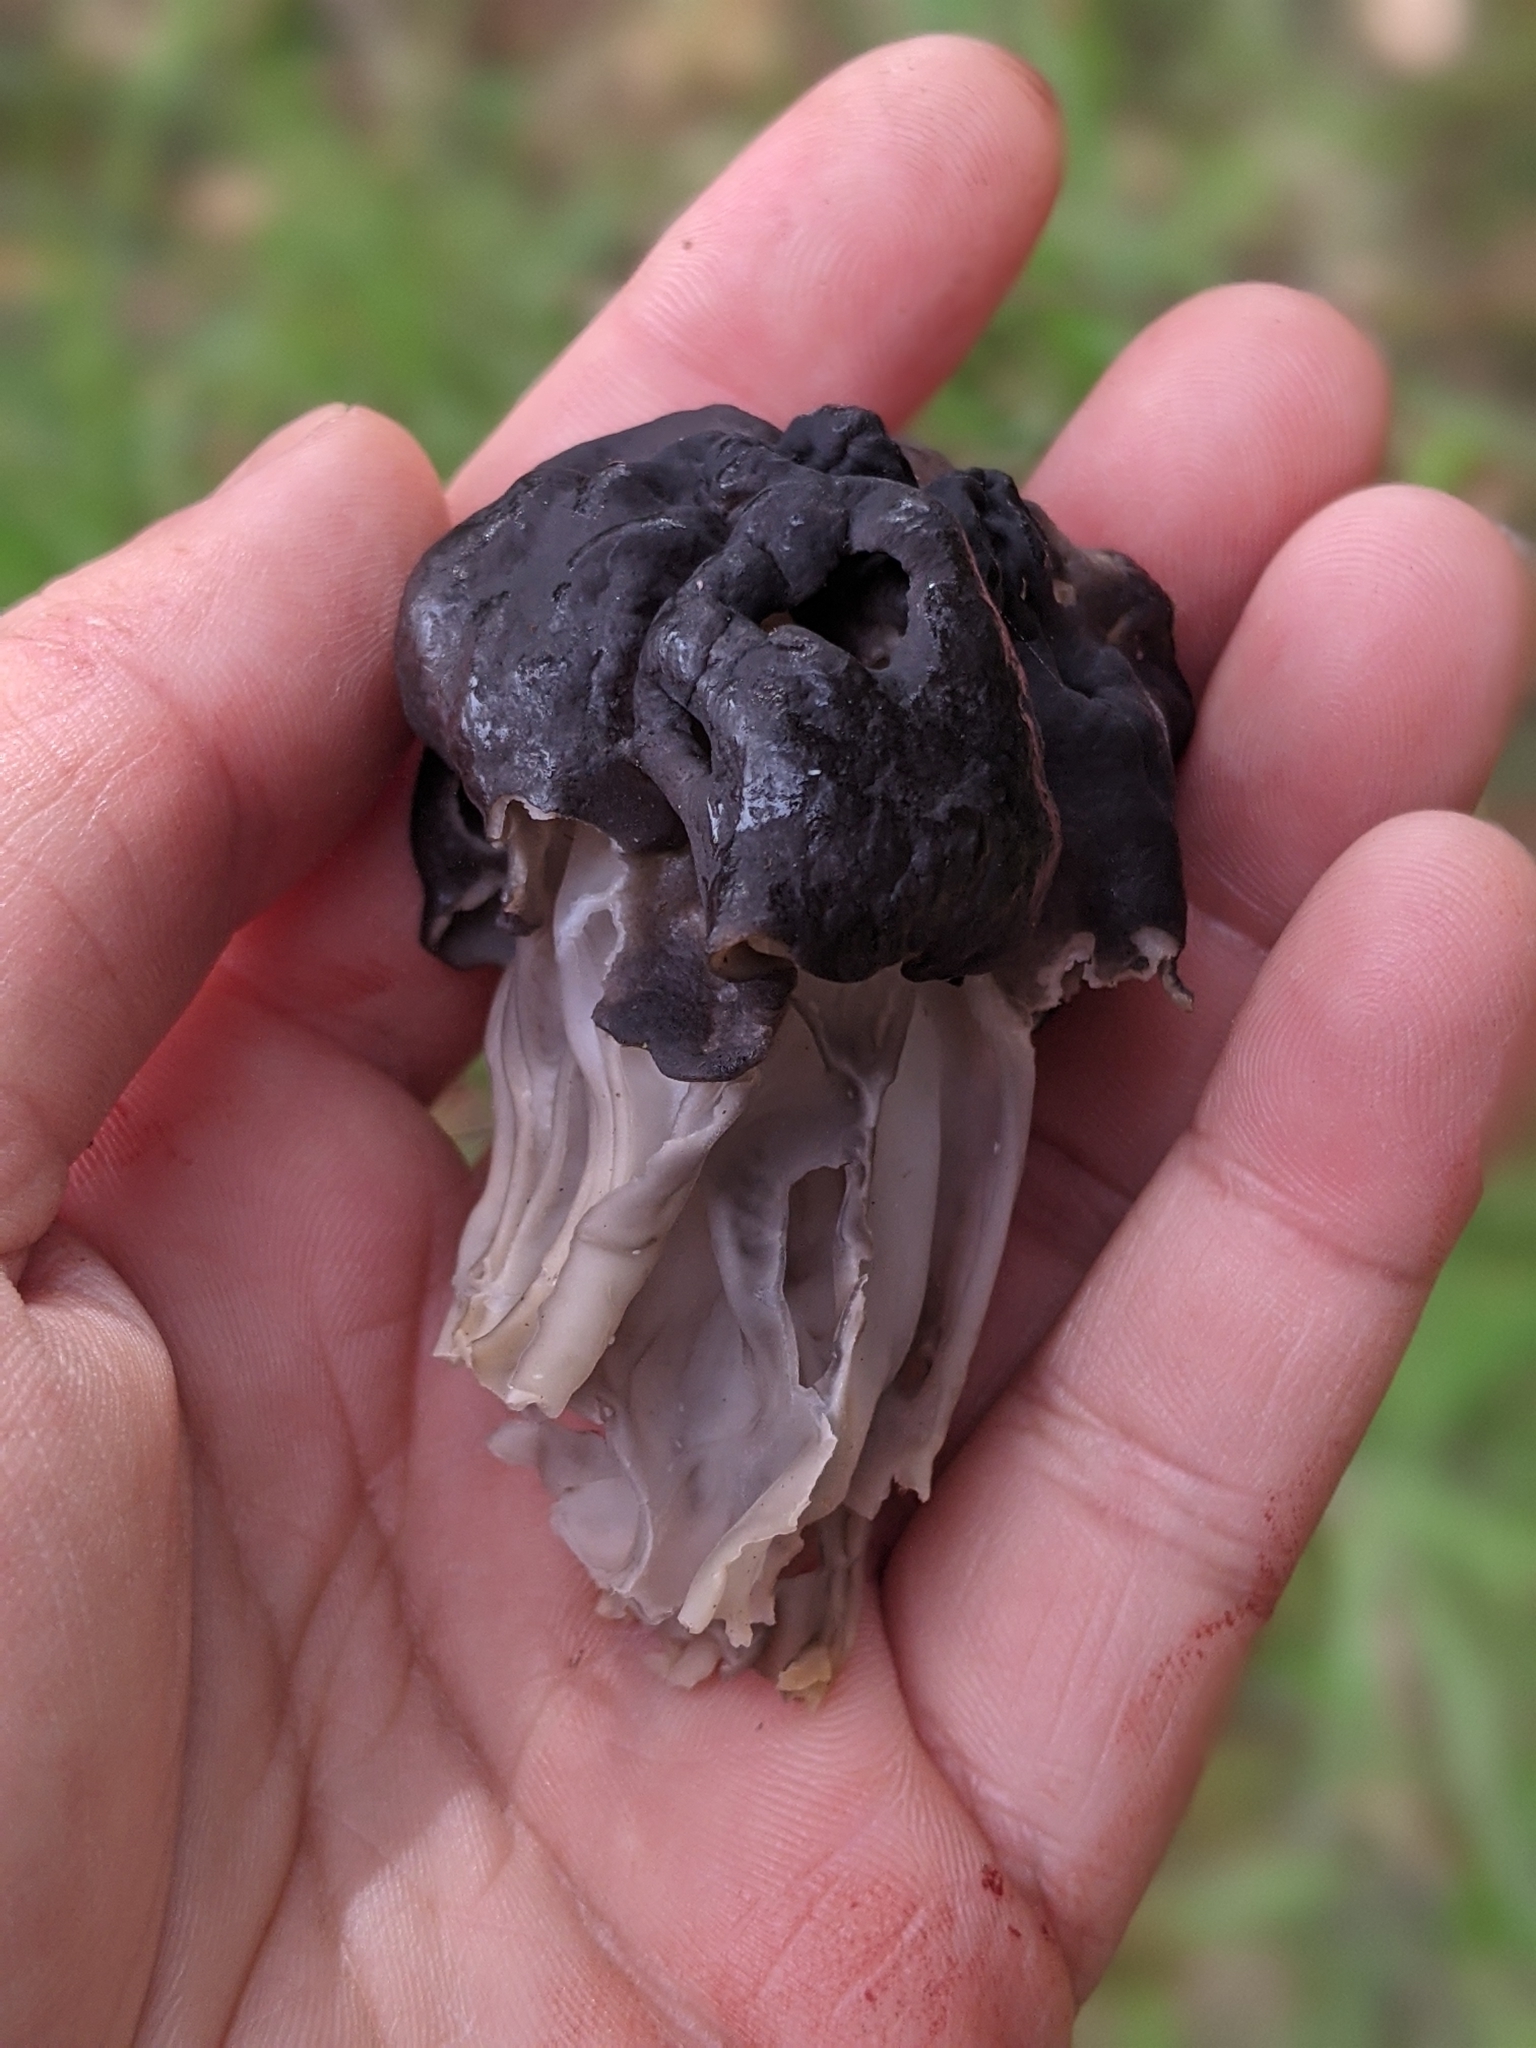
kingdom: Fungi
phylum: Ascomycota
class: Pezizomycetes
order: Pezizales
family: Helvellaceae
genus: Helvella
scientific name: Helvella dryophila
